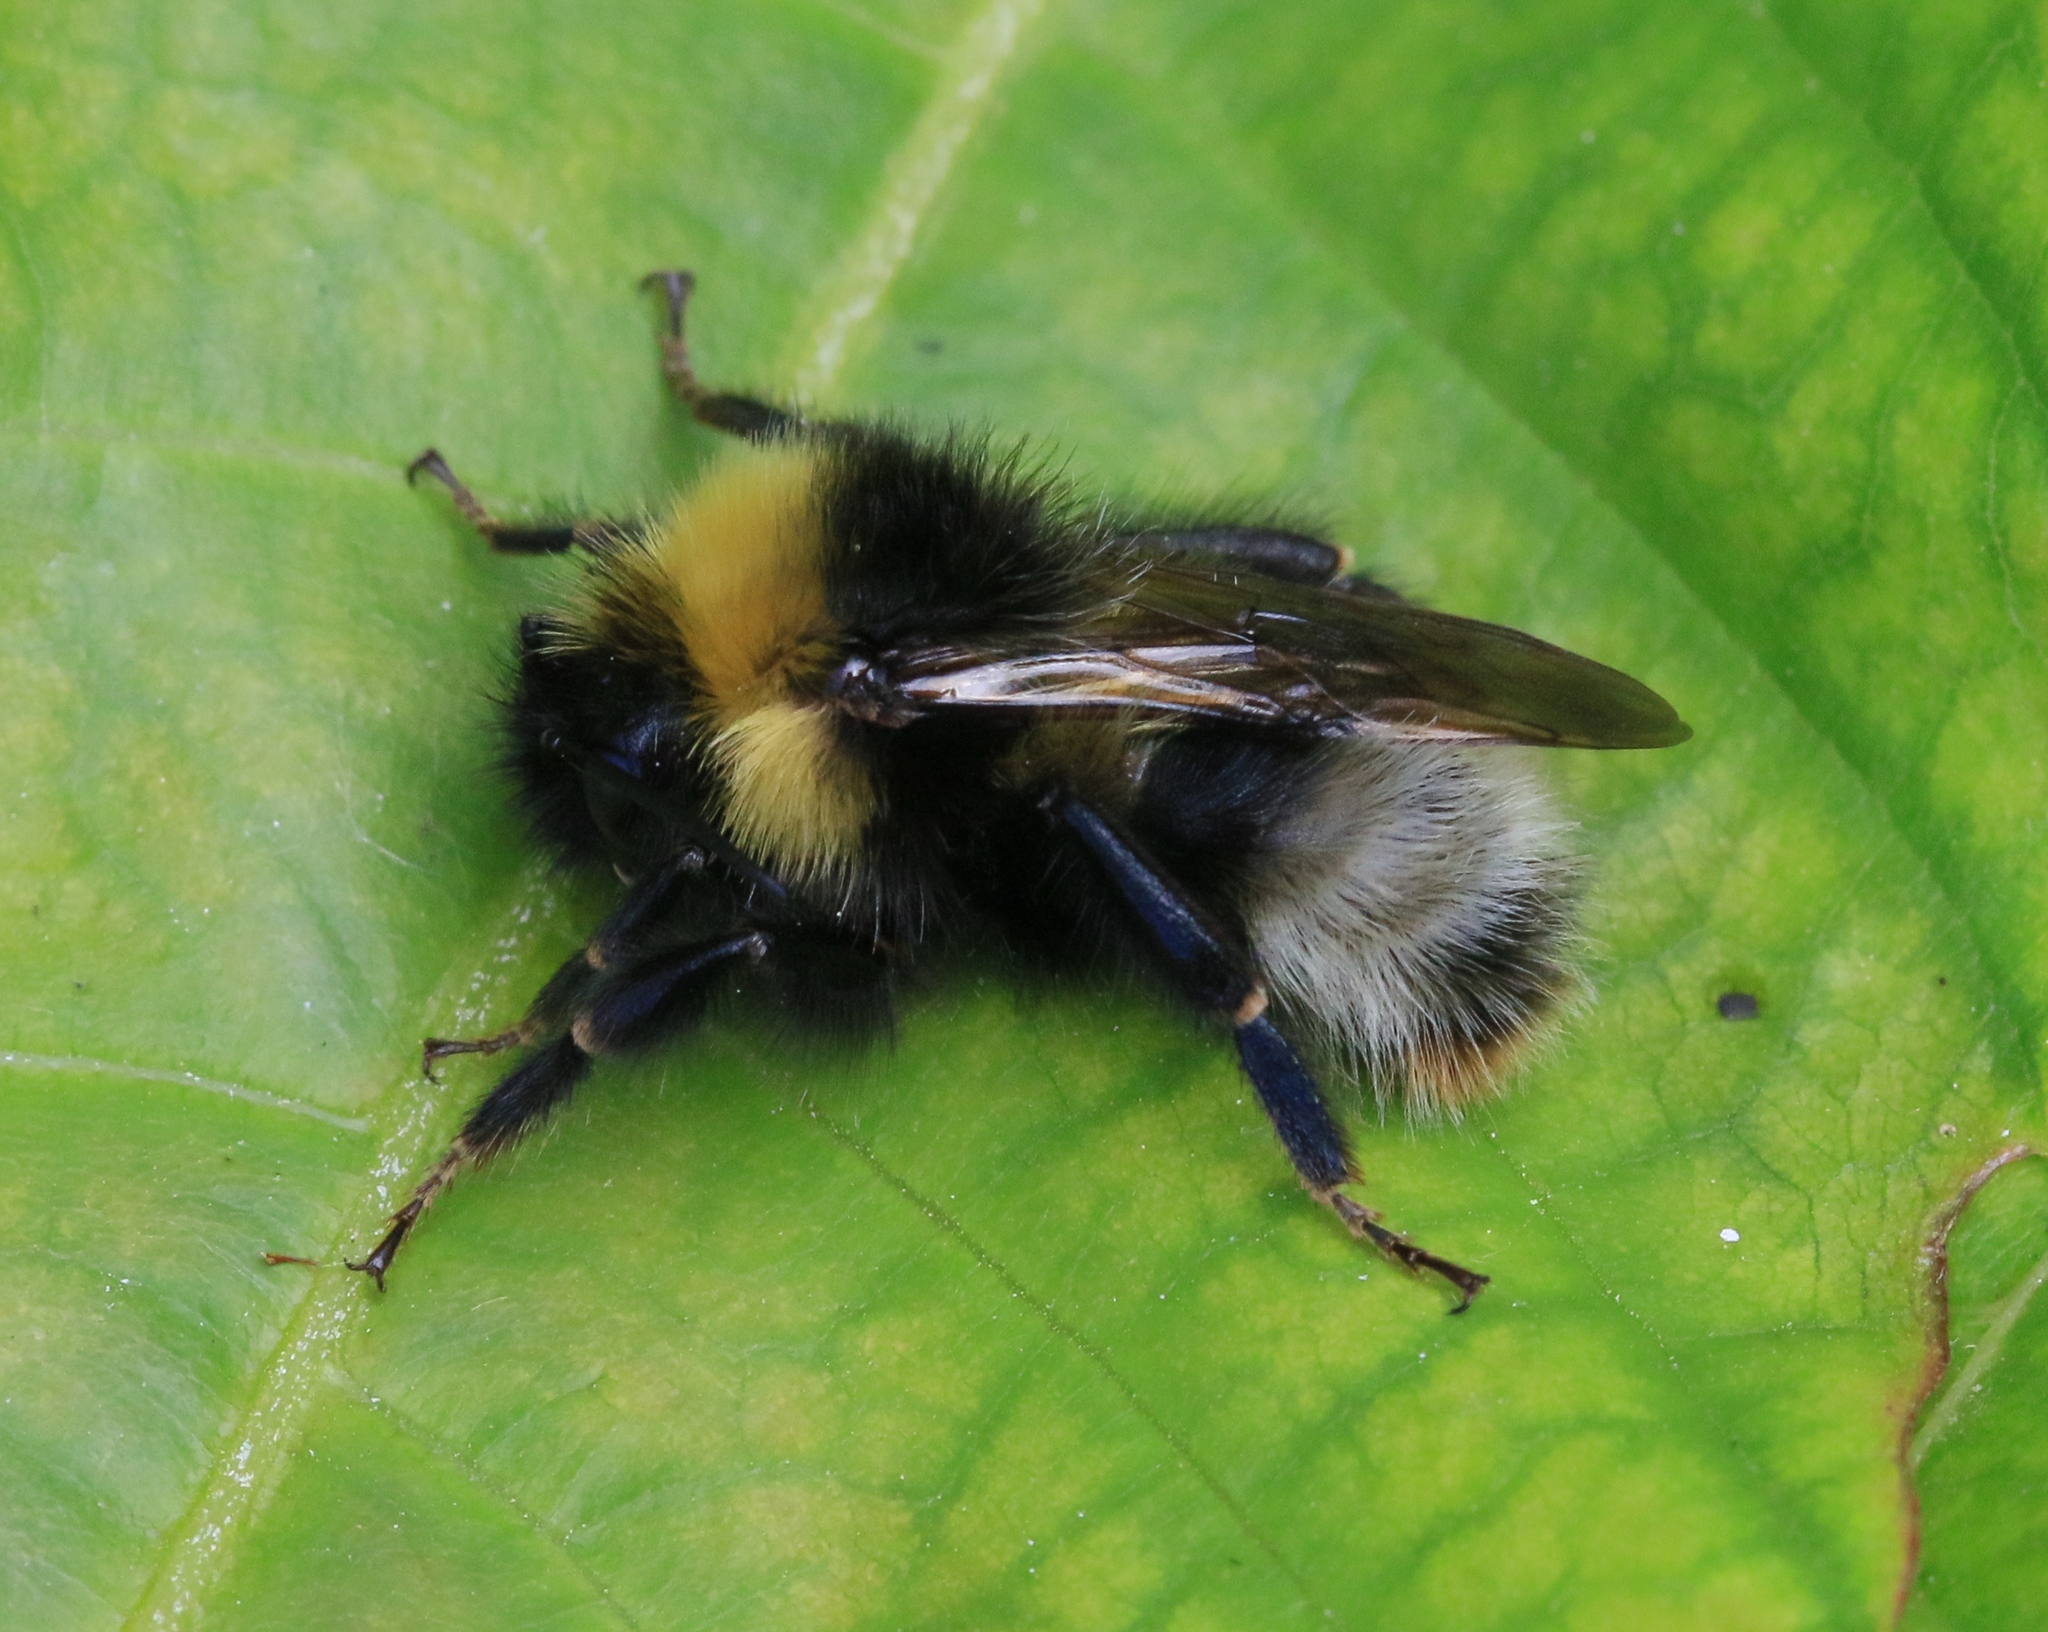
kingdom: Animalia
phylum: Arthropoda
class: Insecta
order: Hymenoptera
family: Apidae
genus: Bombus
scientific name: Bombus sylvestris
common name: Forest cuckoo bee
